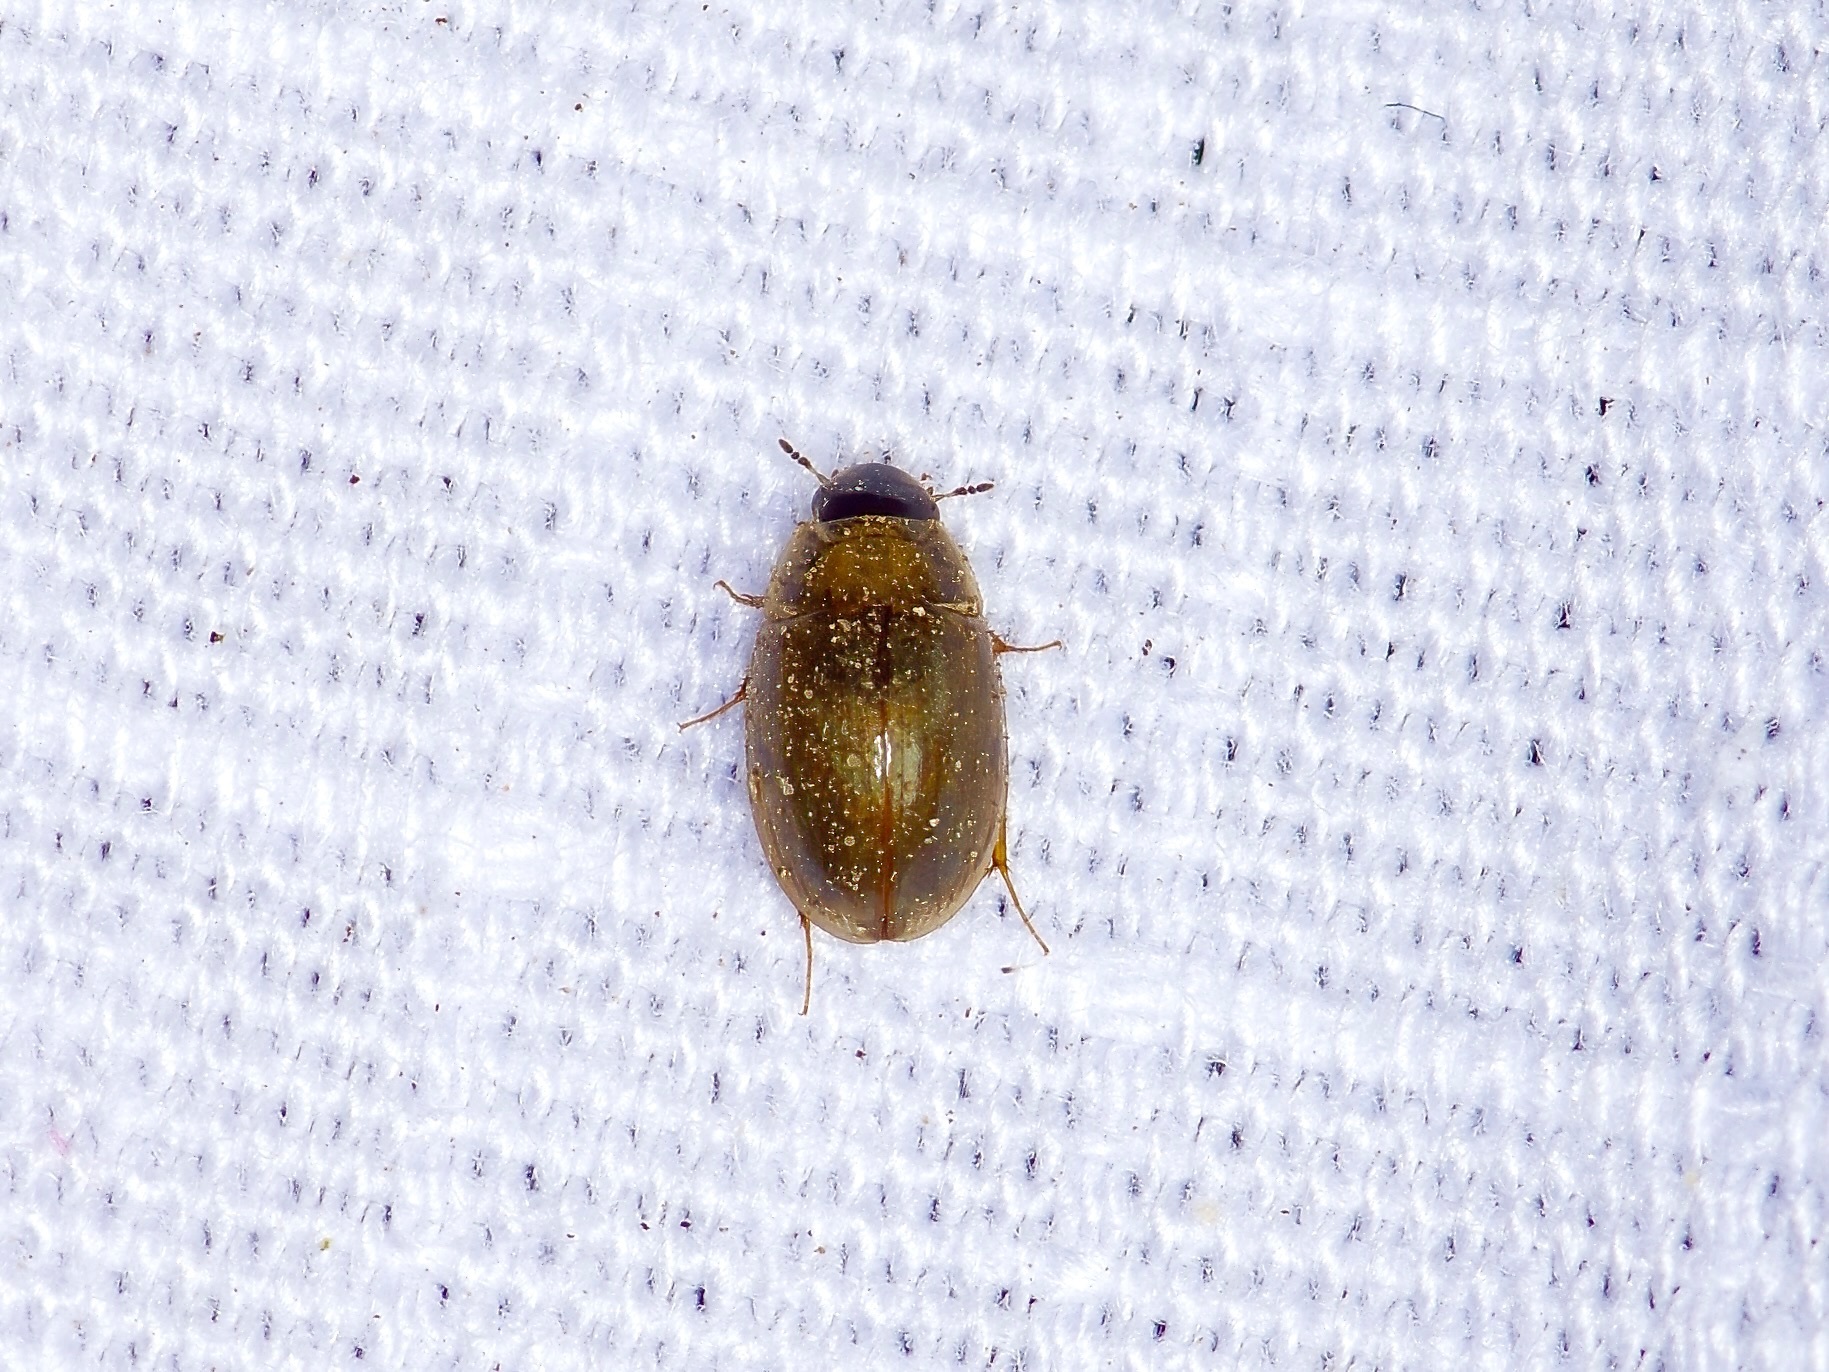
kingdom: Animalia
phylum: Arthropoda
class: Insecta
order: Coleoptera
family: Hydrophilidae
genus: Enochrus
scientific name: Enochrus
